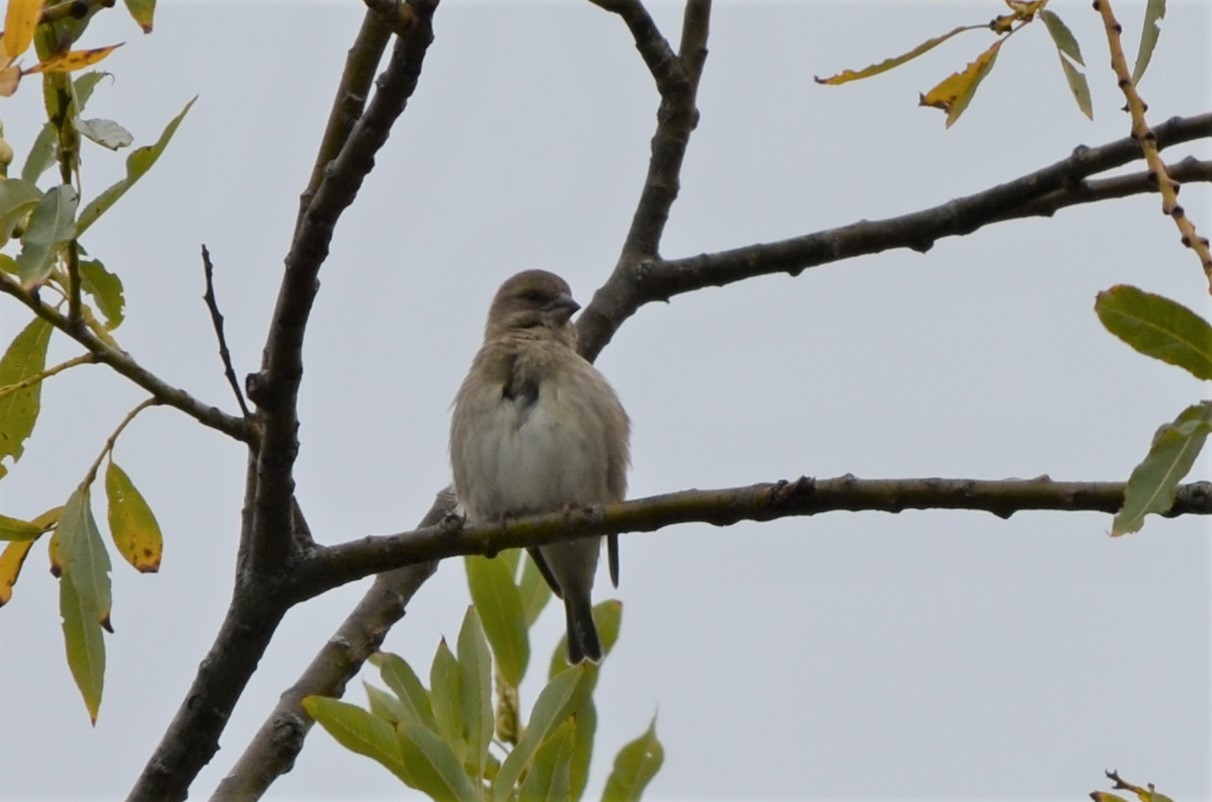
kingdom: Plantae
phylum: Tracheophyta
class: Liliopsida
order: Poales
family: Poaceae
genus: Chloris
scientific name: Chloris chloris
